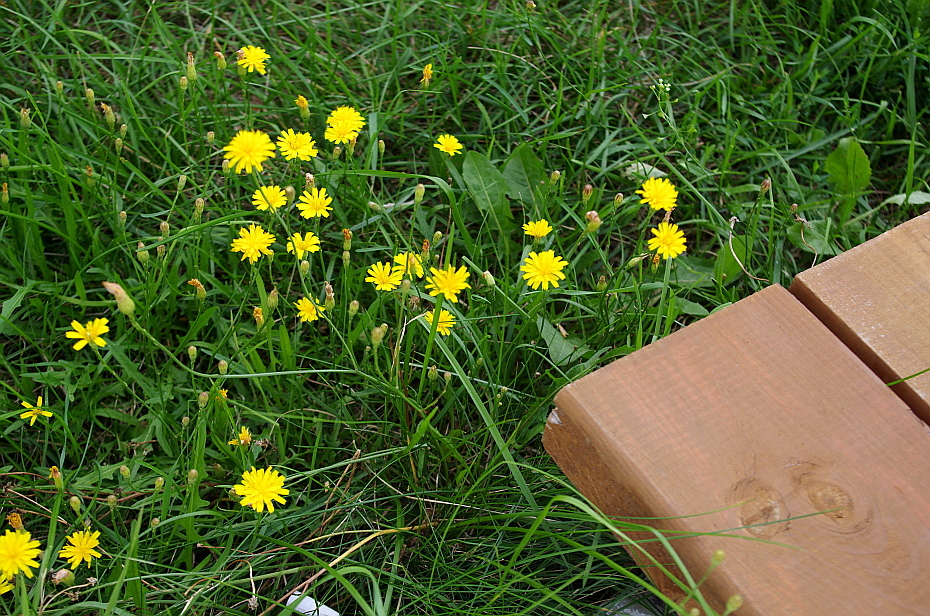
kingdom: Plantae
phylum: Tracheophyta
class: Magnoliopsida
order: Asterales
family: Asteraceae
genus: Scorzoneroides
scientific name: Scorzoneroides autumnalis
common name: Autumn hawkbit
